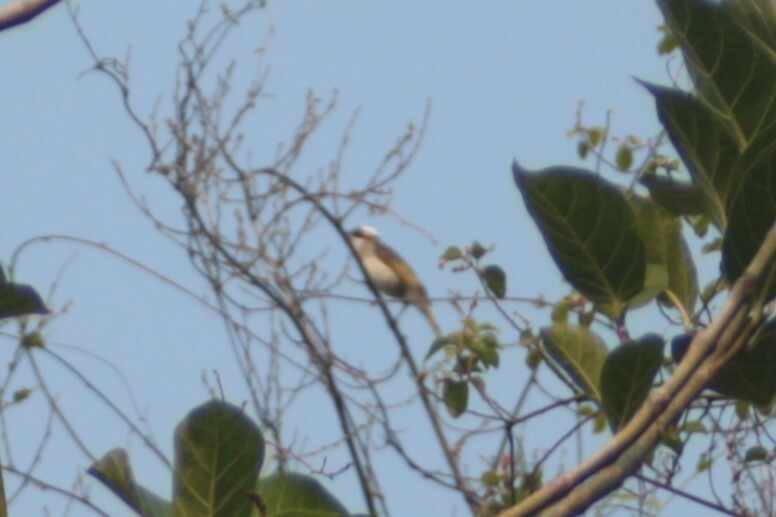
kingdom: Animalia
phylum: Chordata
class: Aves
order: Passeriformes
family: Pycnonotidae
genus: Pycnonotus
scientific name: Pycnonotus sinensis
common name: Light-vented bulbul
